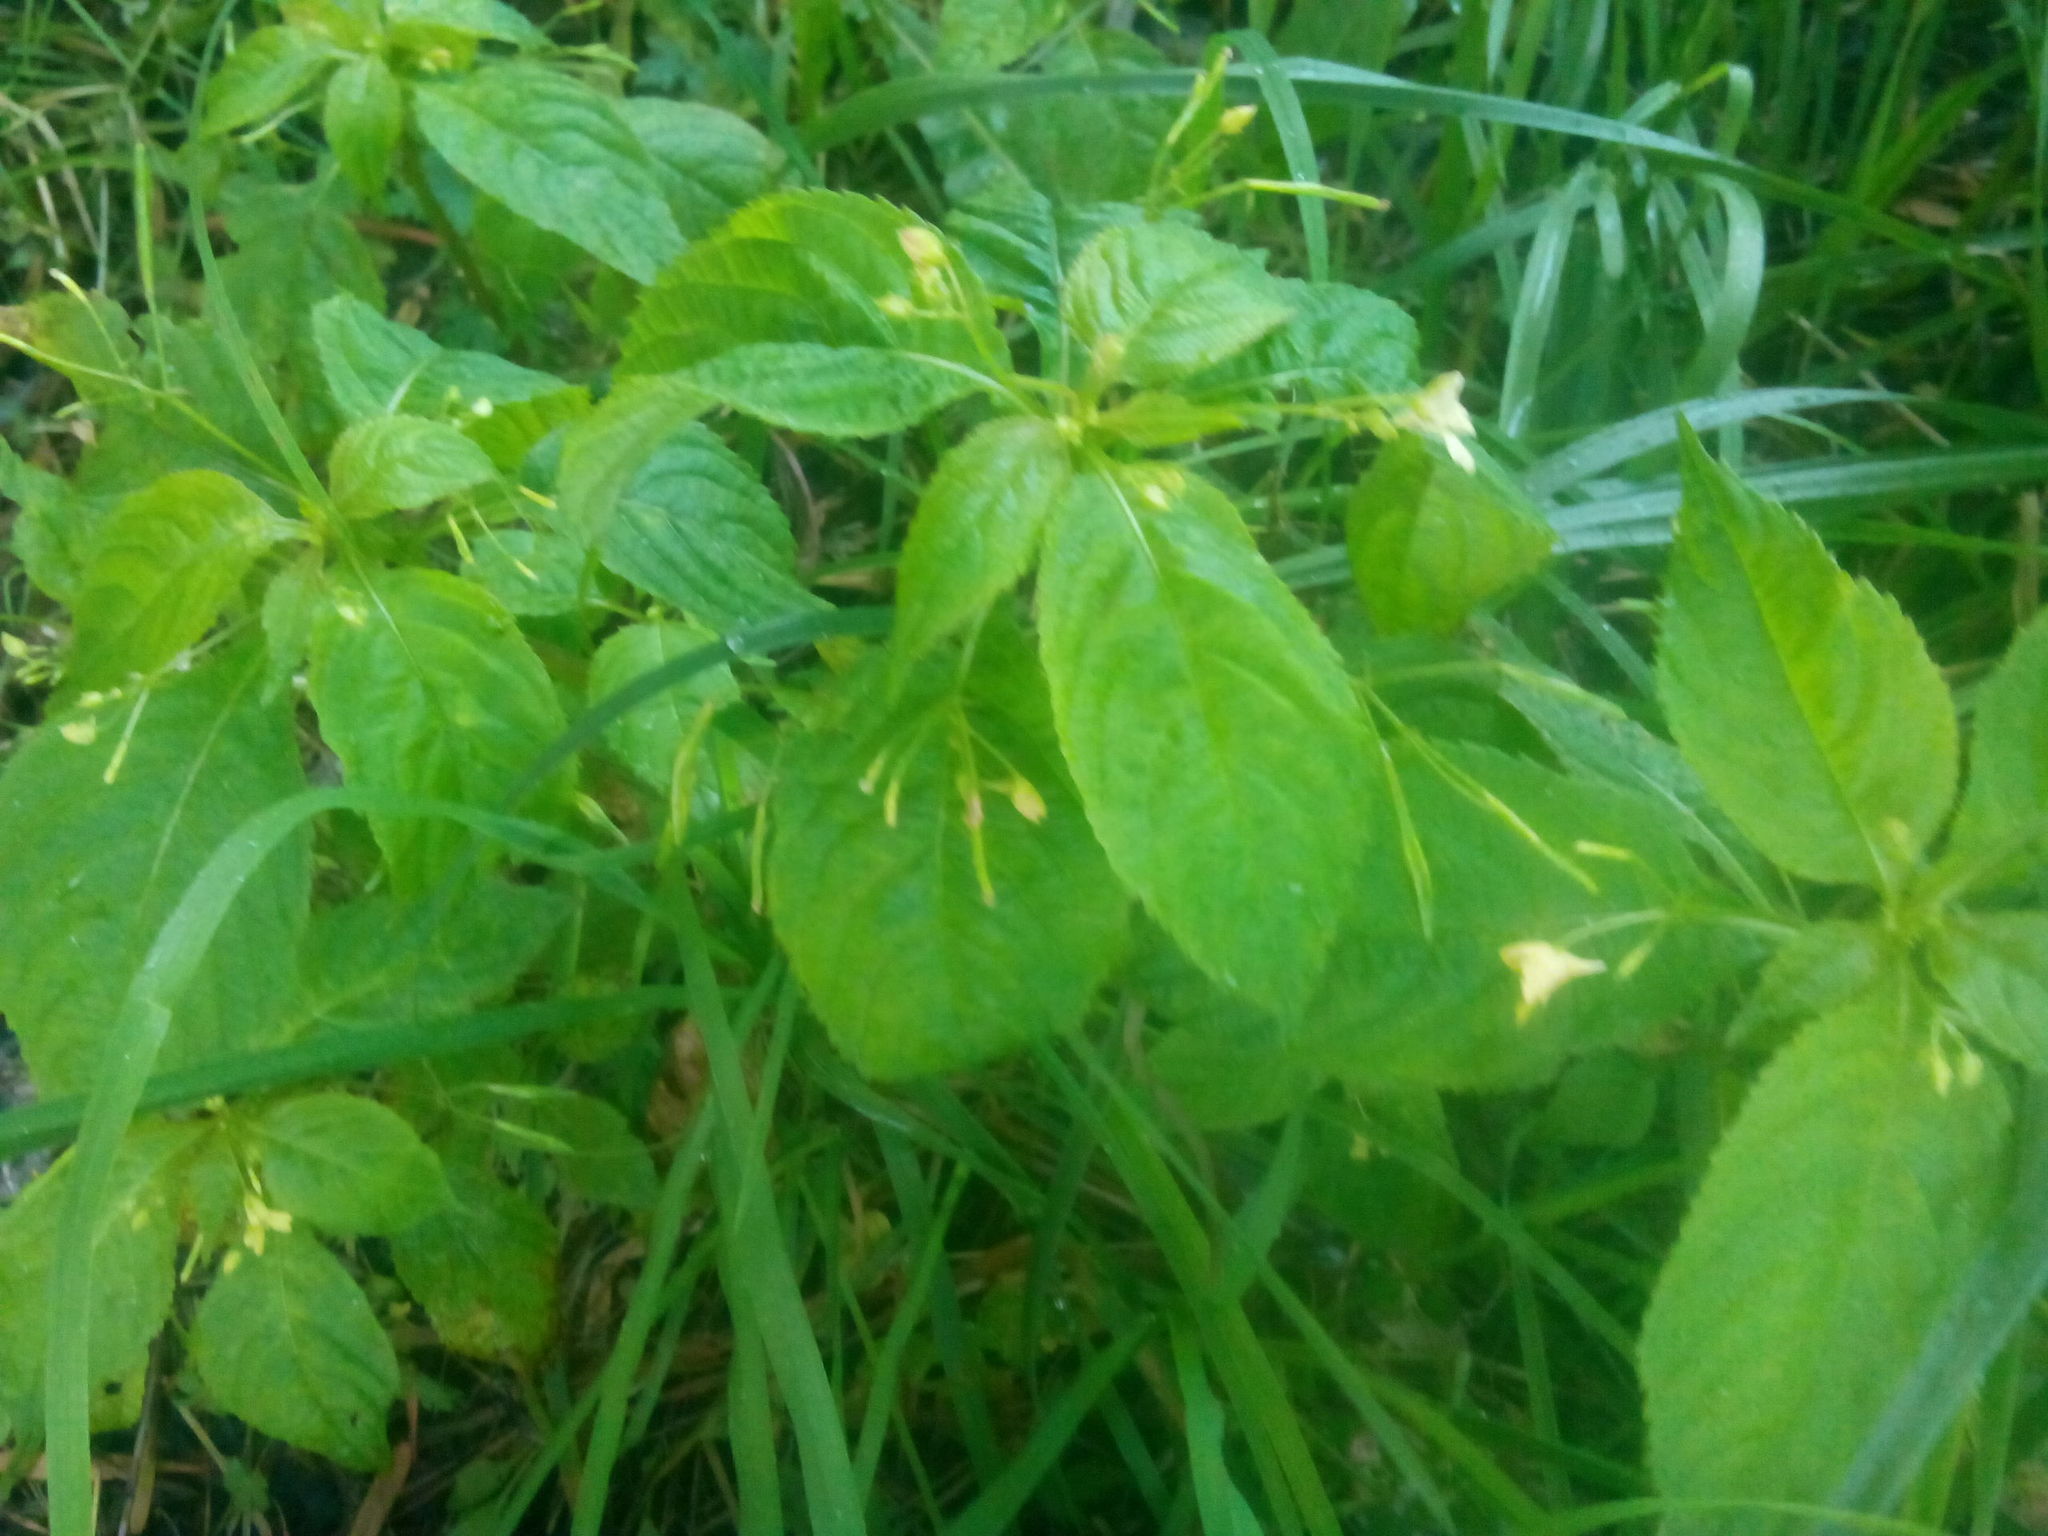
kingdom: Plantae
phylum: Tracheophyta
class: Magnoliopsida
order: Ericales
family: Balsaminaceae
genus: Impatiens
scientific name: Impatiens parviflora
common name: Small balsam
